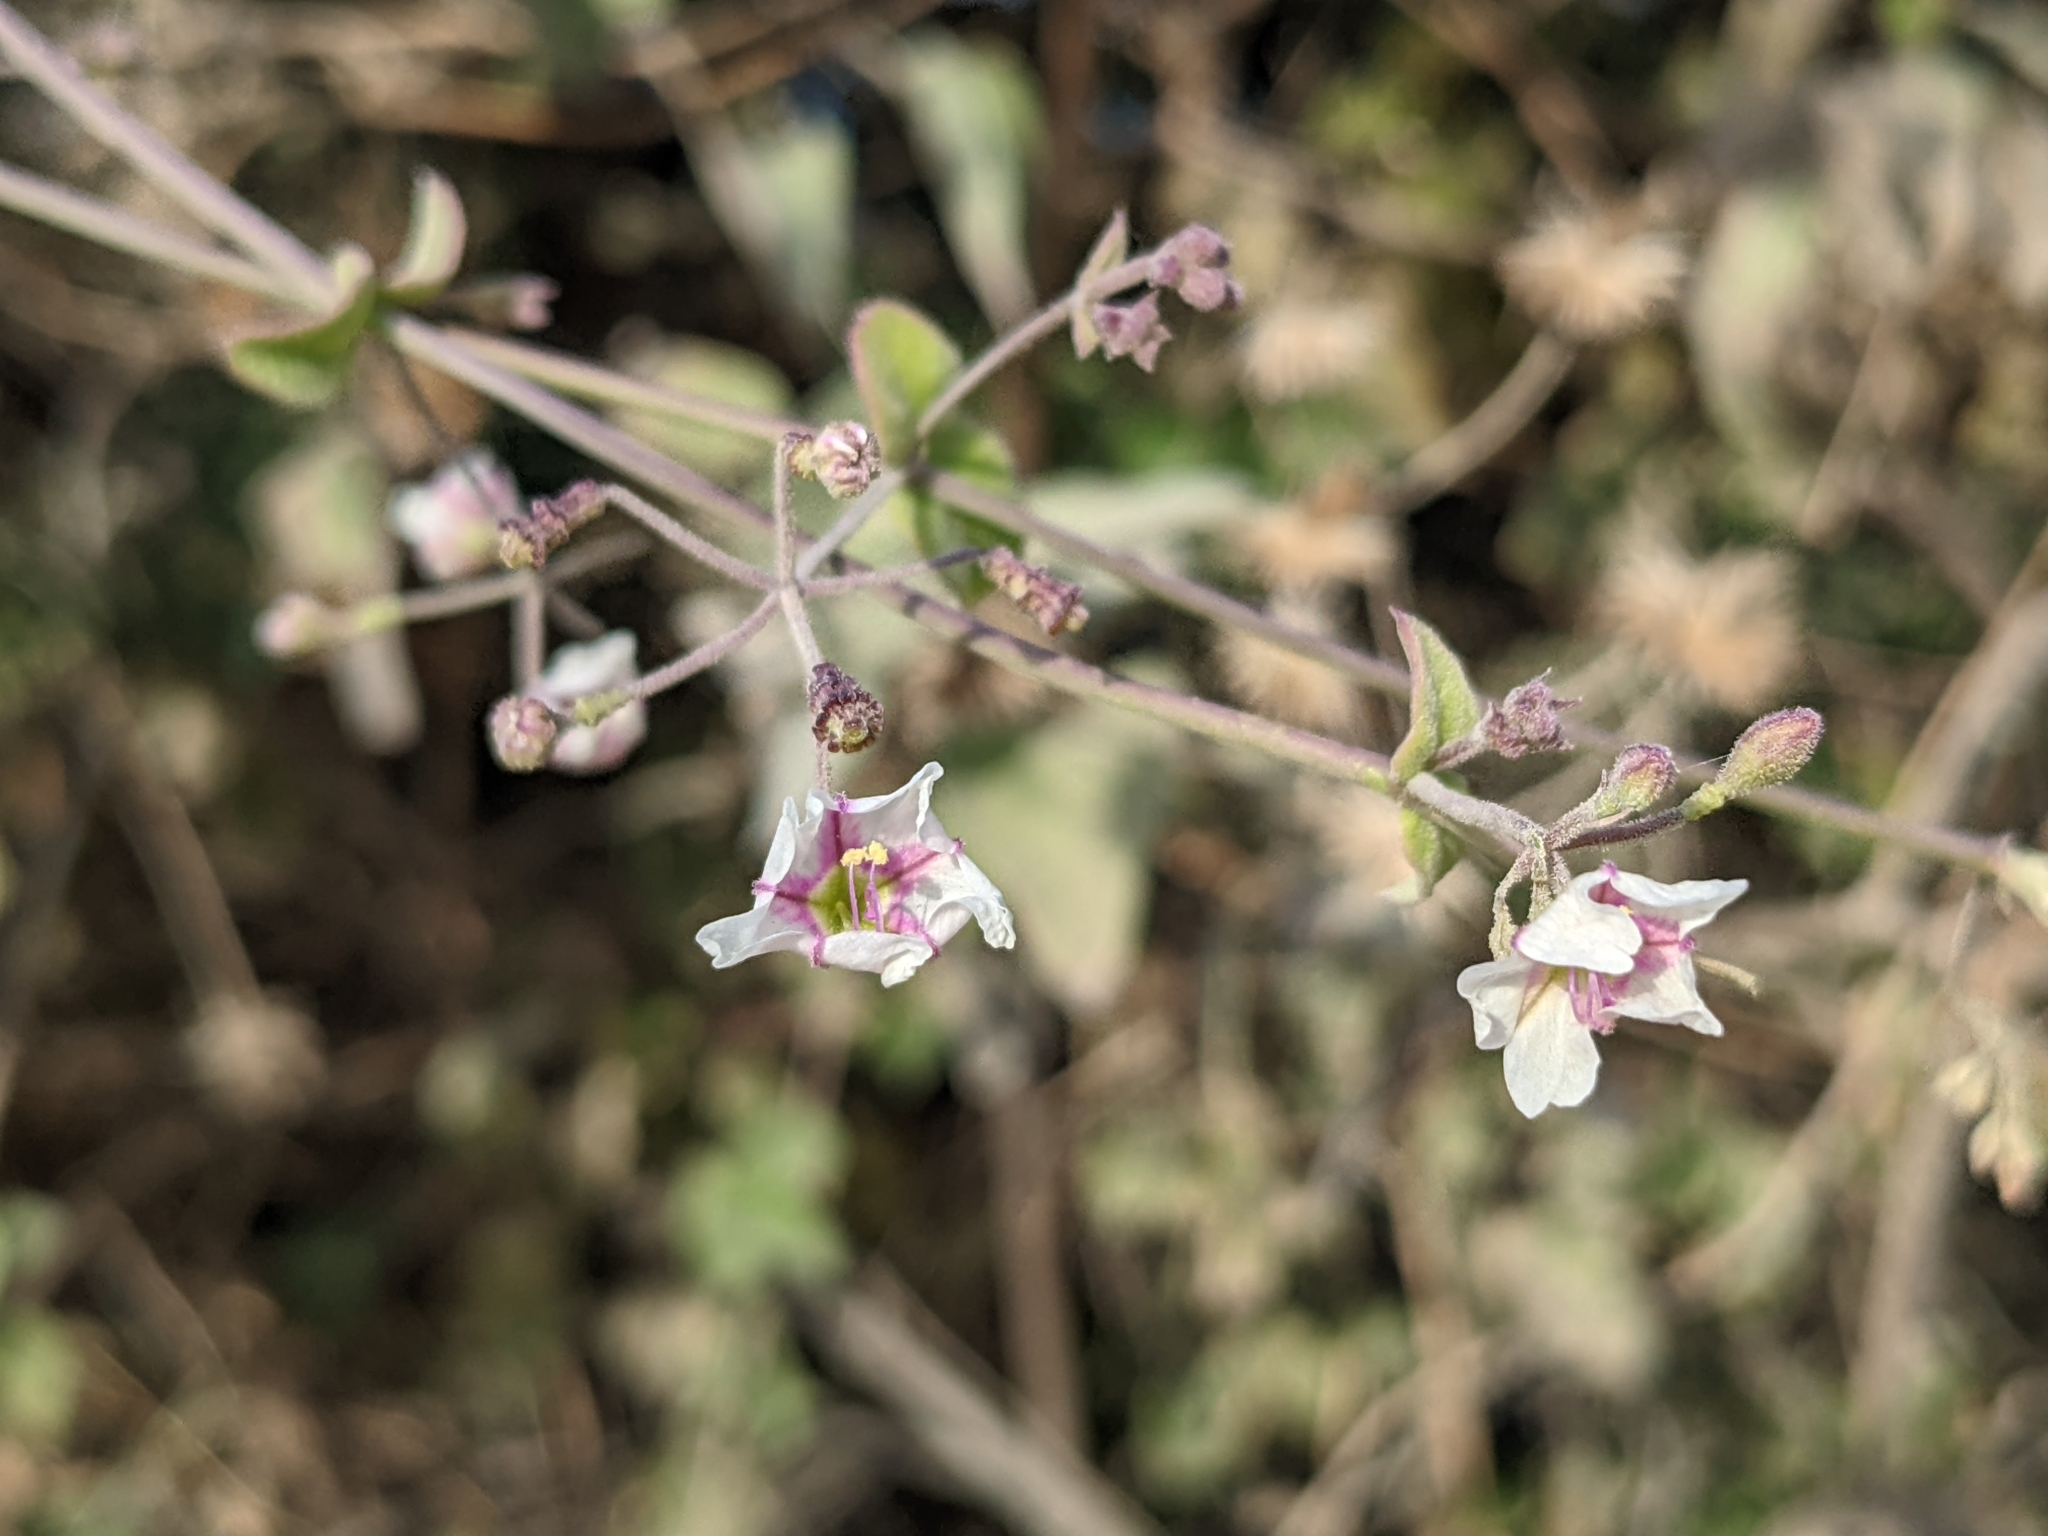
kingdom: Plantae
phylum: Tracheophyta
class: Magnoliopsida
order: Caryophyllales
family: Nyctaginaceae
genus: Commicarpus
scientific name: Commicarpus brandegeei
